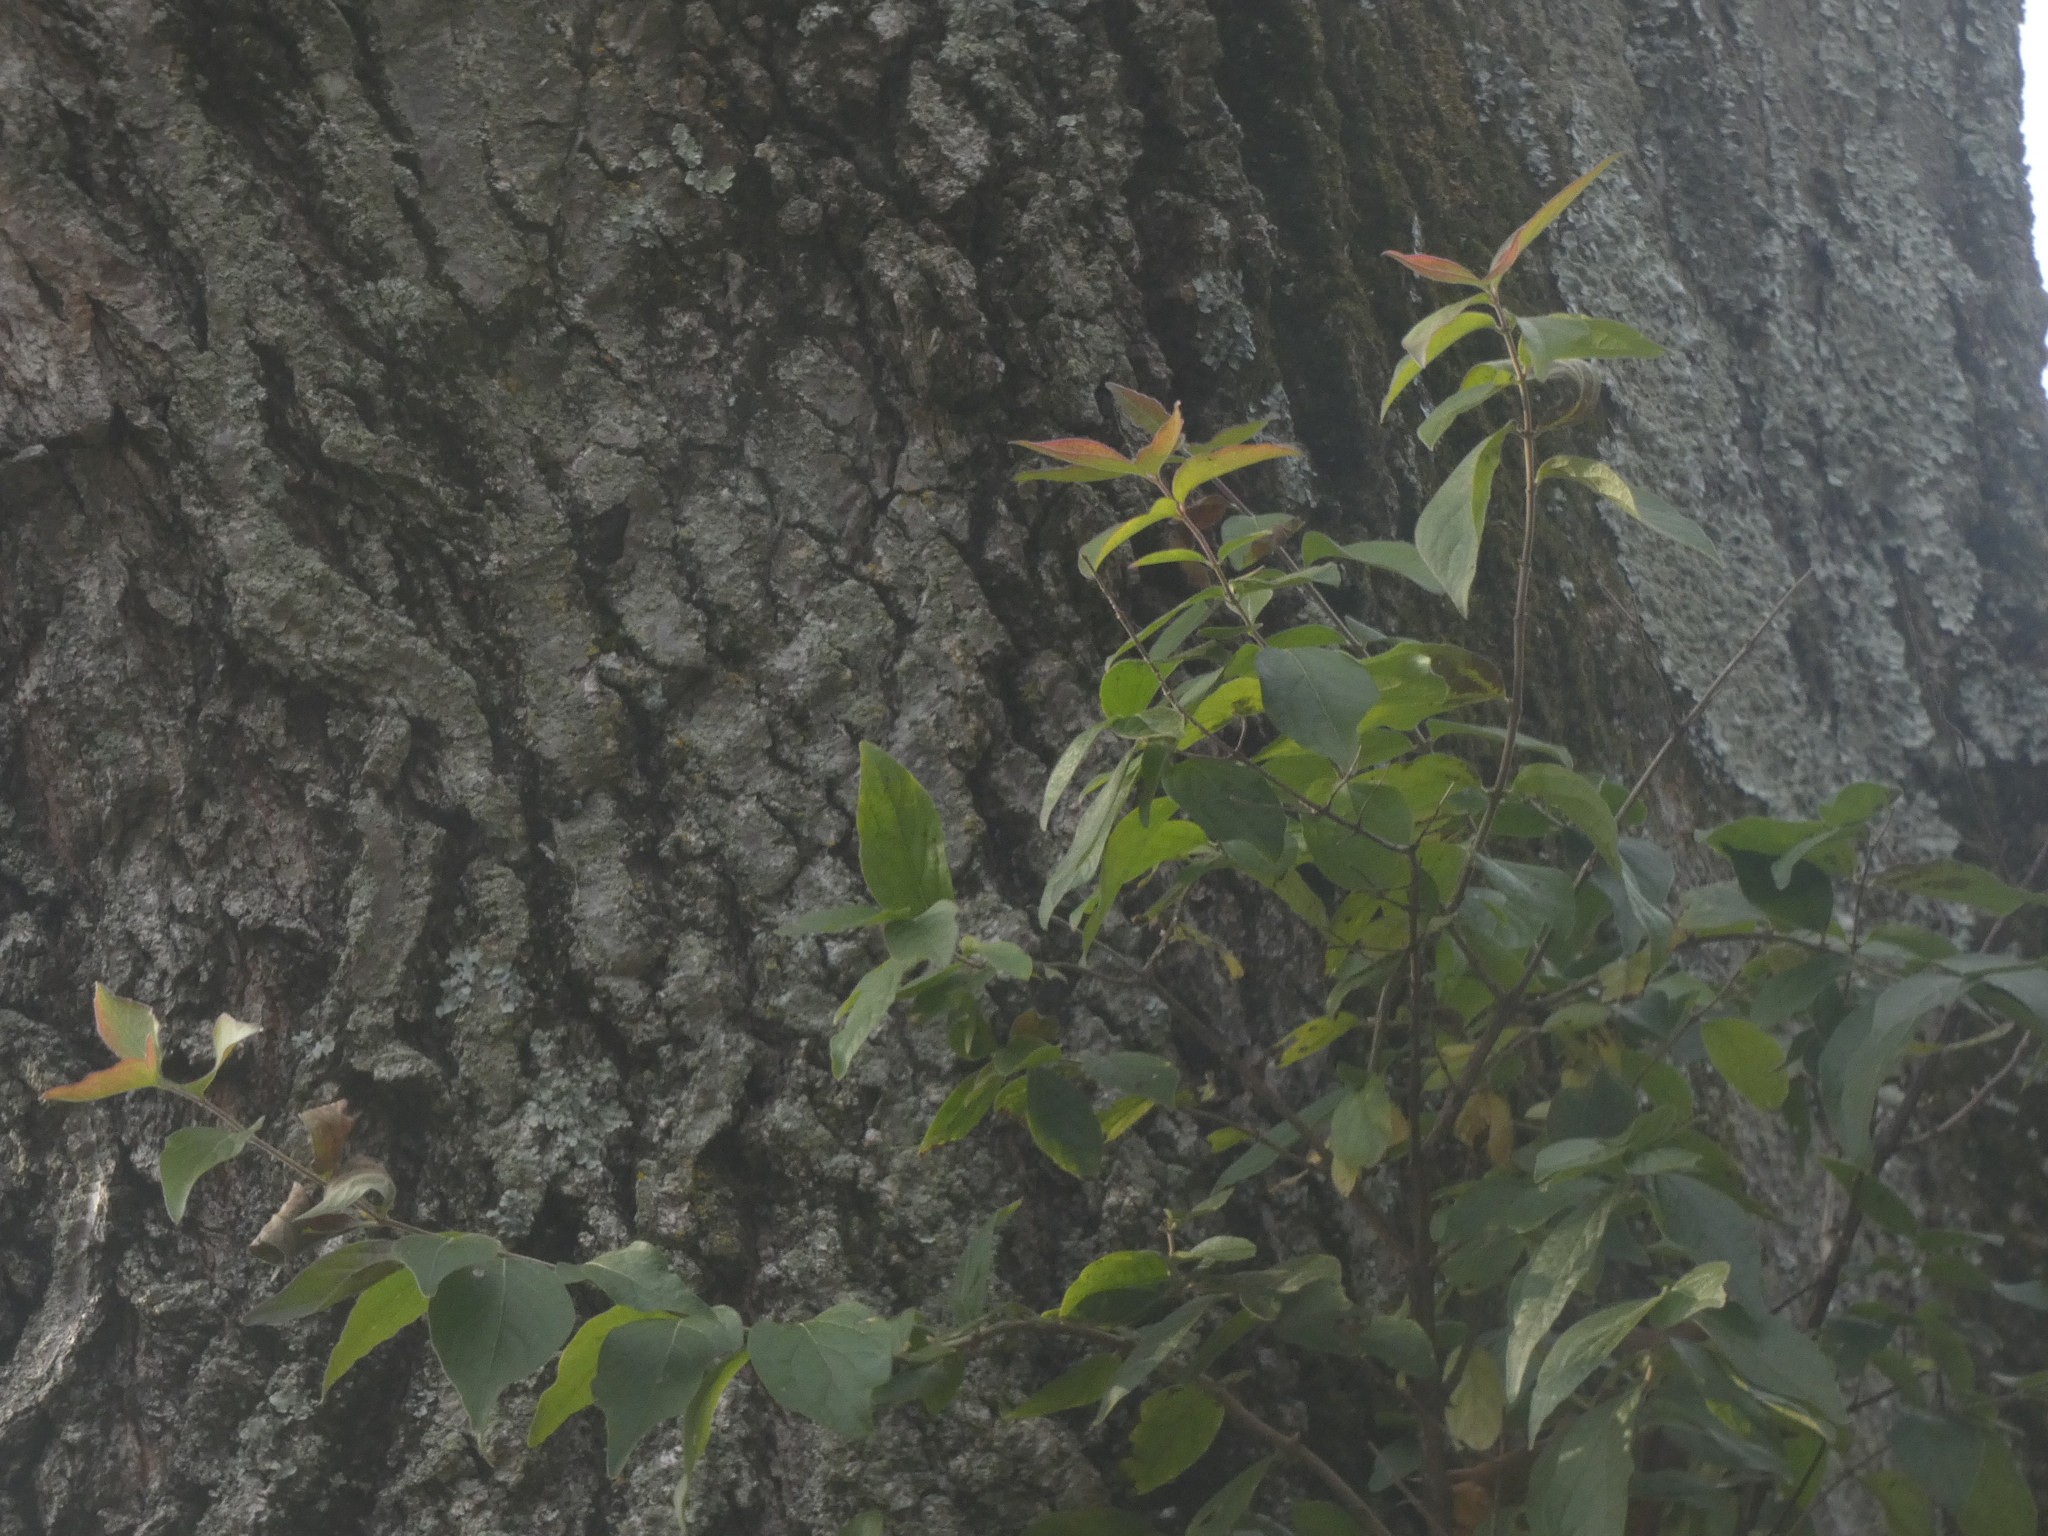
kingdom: Plantae
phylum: Tracheophyta
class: Magnoliopsida
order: Dipsacales
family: Caprifoliaceae
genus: Lonicera
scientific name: Lonicera maackii
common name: Amur honeysuckle
